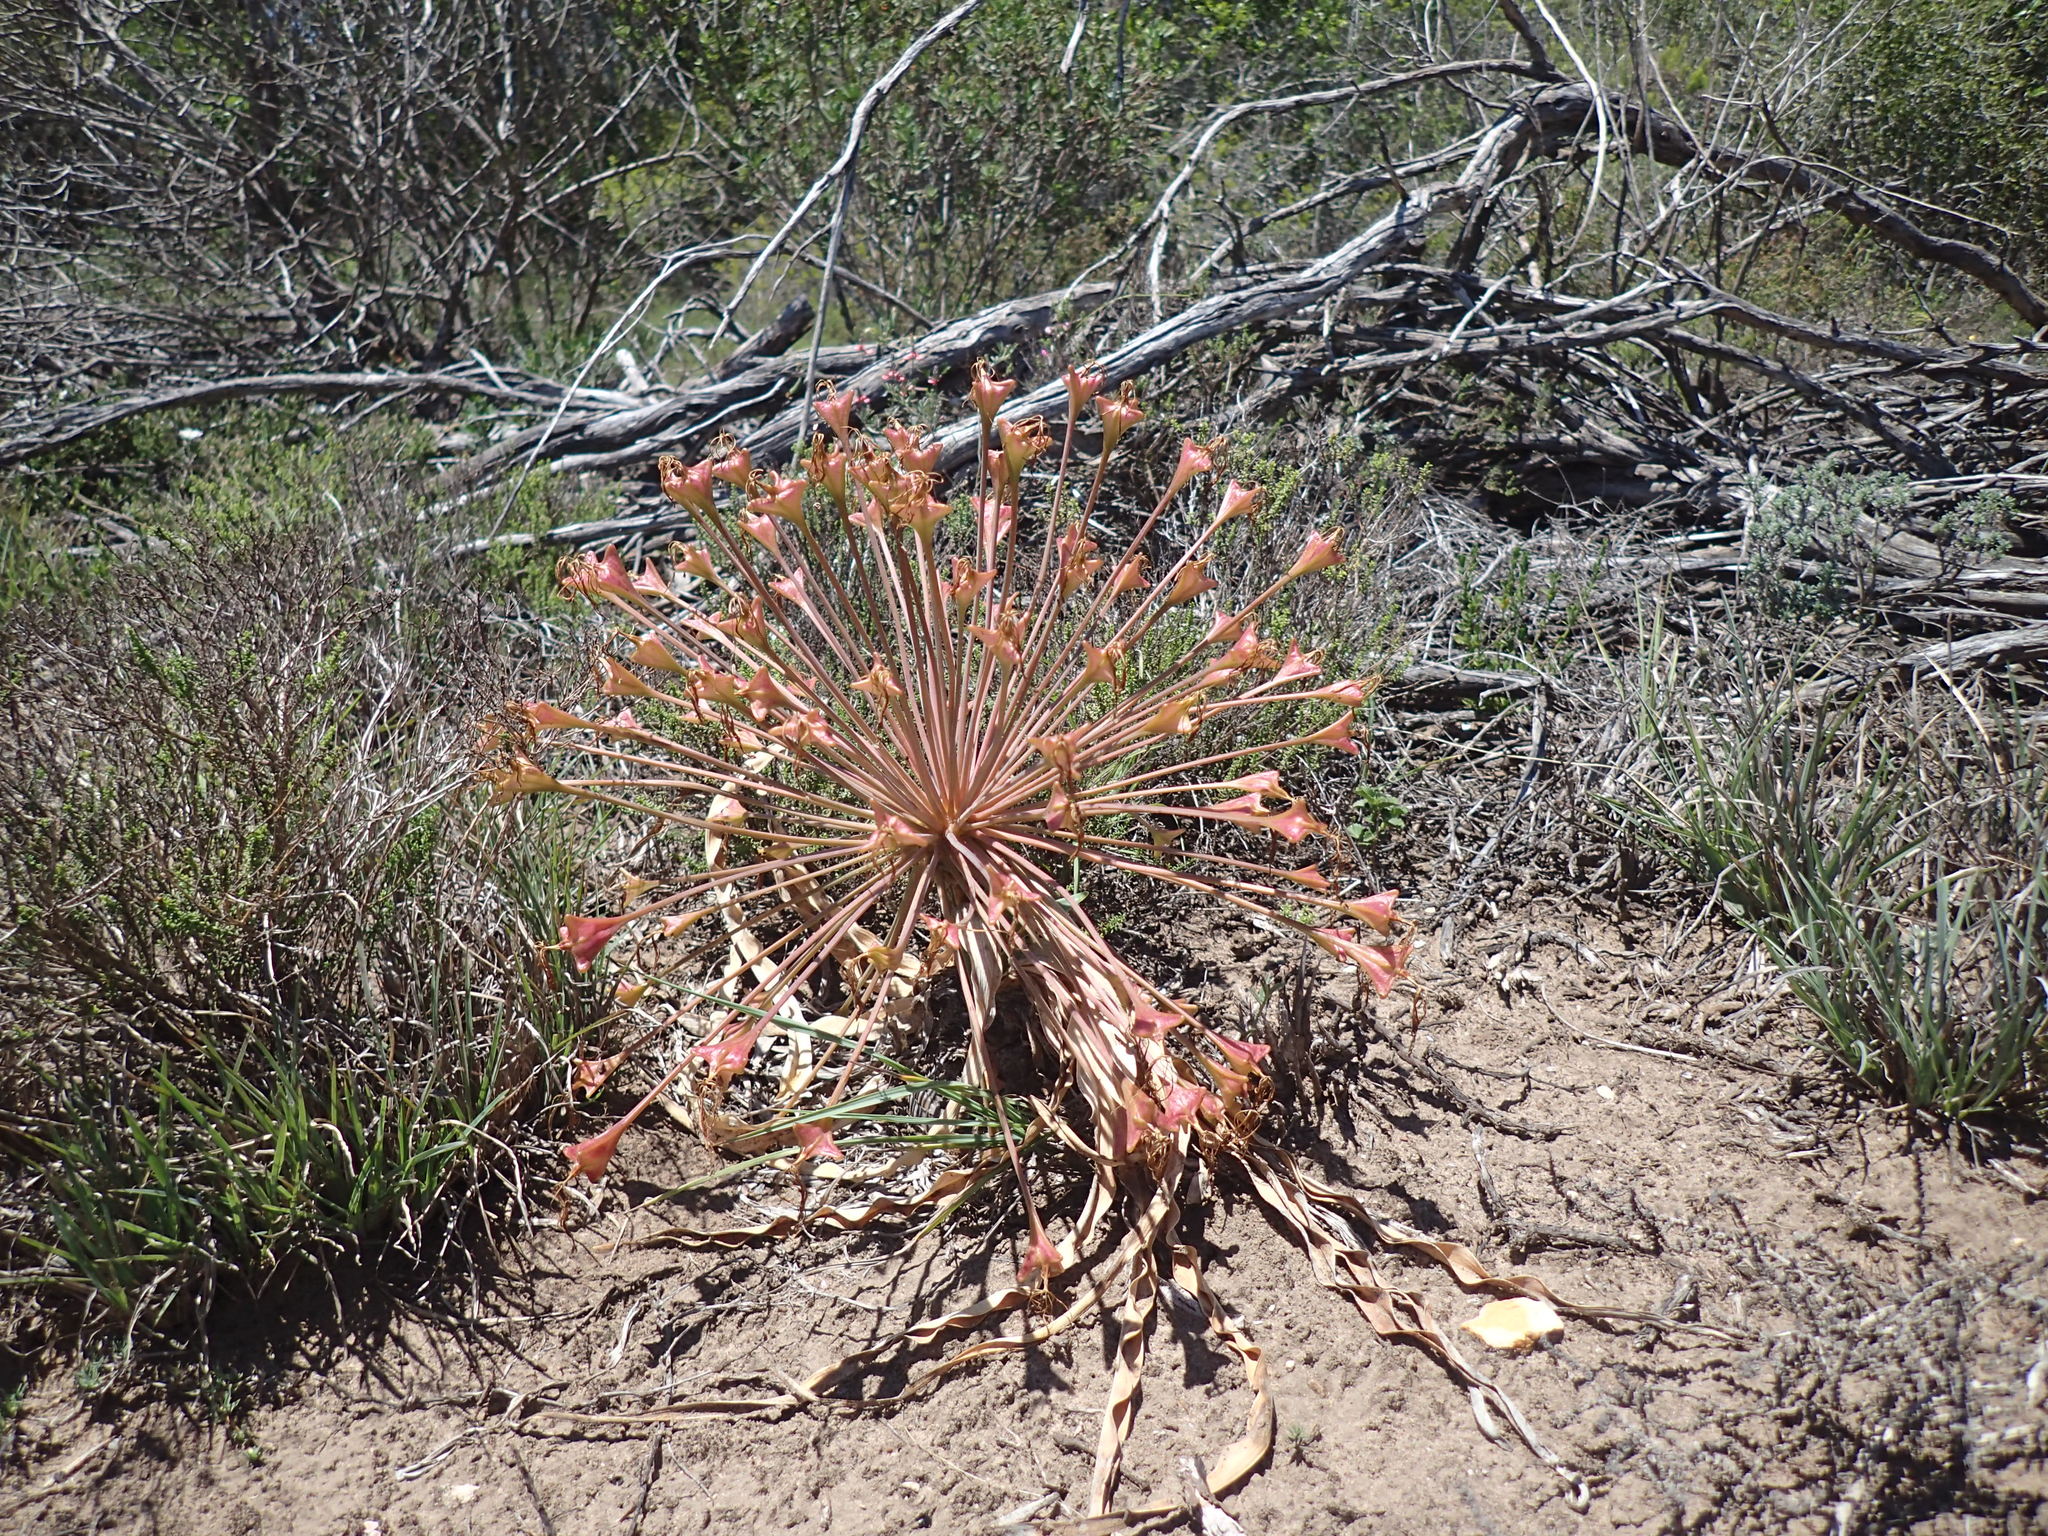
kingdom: Plantae
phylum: Tracheophyta
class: Liliopsida
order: Asparagales
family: Amaryllidaceae
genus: Boophone
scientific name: Boophone disticha
